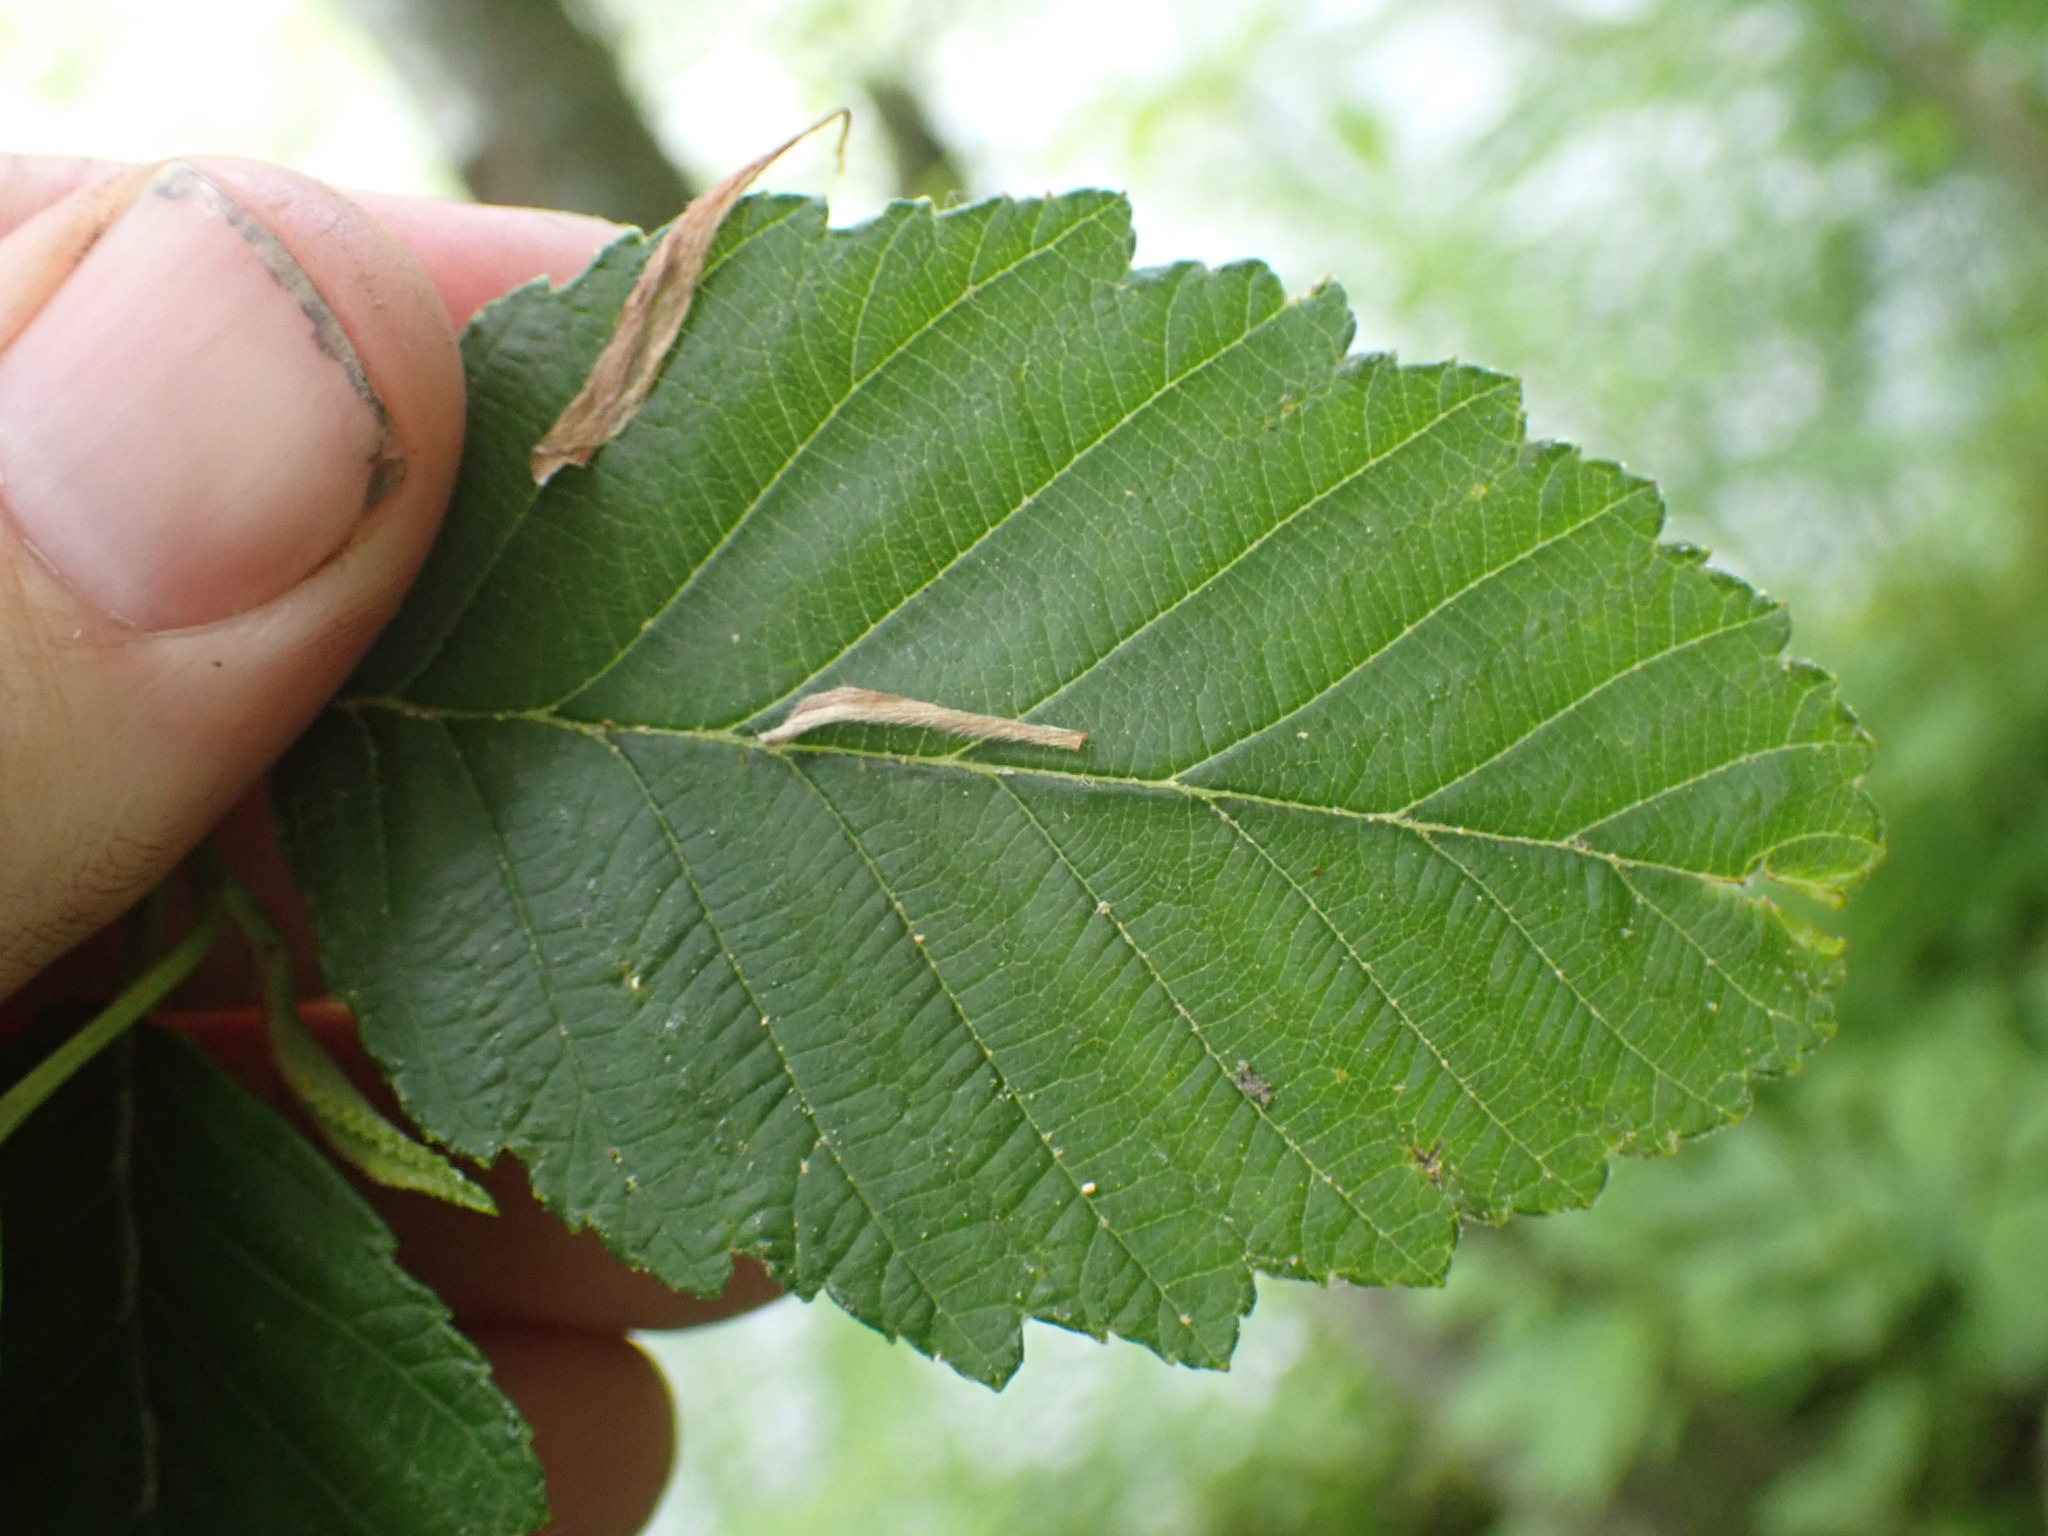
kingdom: Plantae
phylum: Tracheophyta
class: Magnoliopsida
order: Fagales
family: Betulaceae
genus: Alnus
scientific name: Alnus rubra
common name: Red alder
